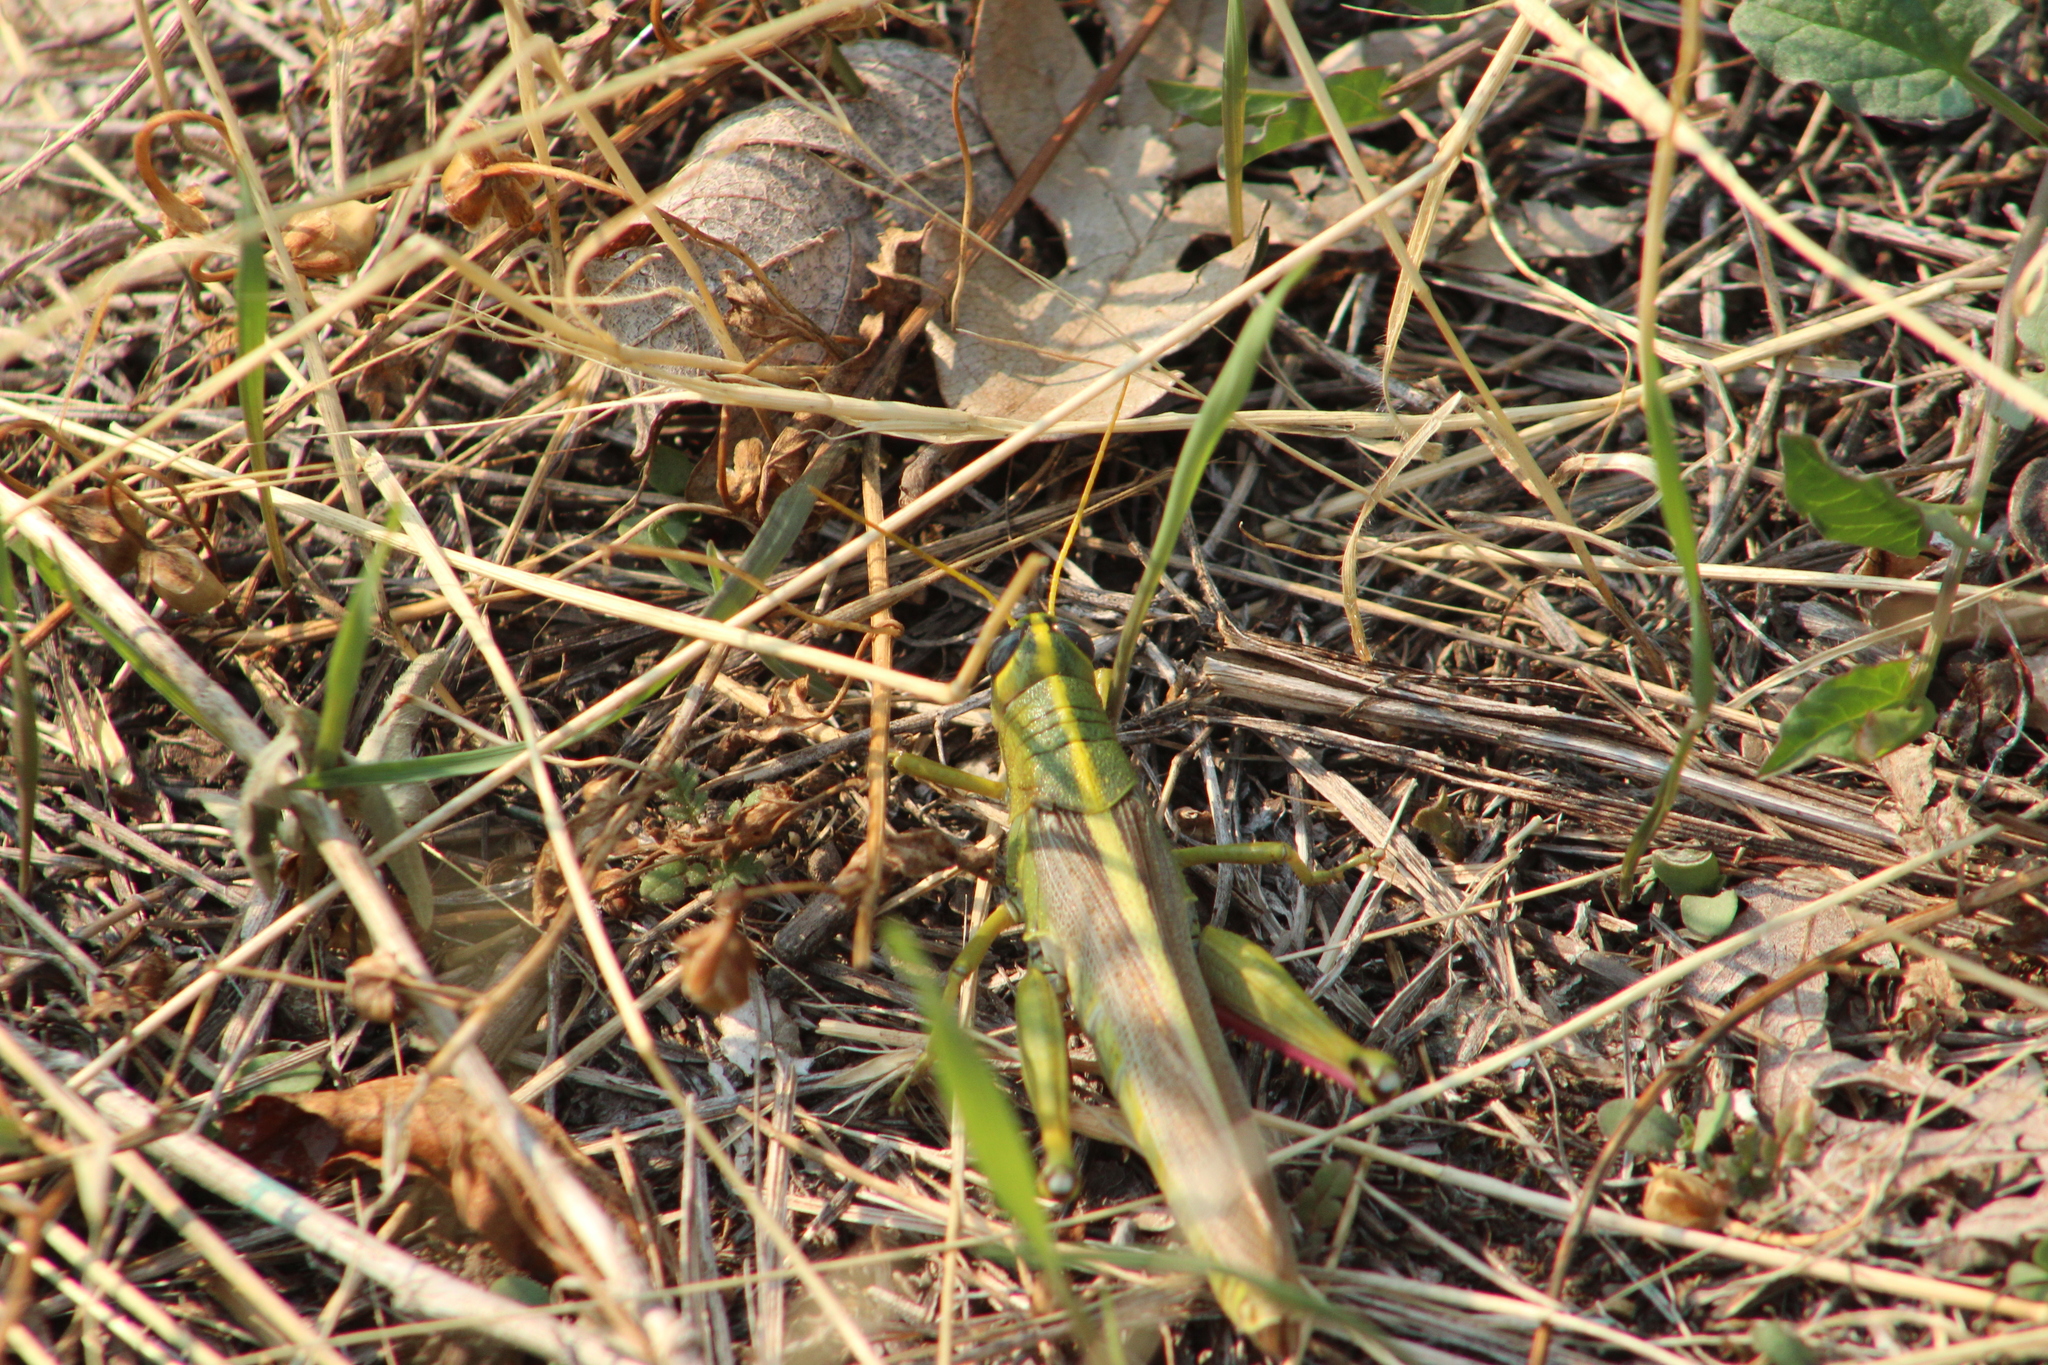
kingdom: Animalia
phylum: Arthropoda
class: Insecta
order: Orthoptera
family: Acrididae
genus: Schistocerca
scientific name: Schistocerca lineata
